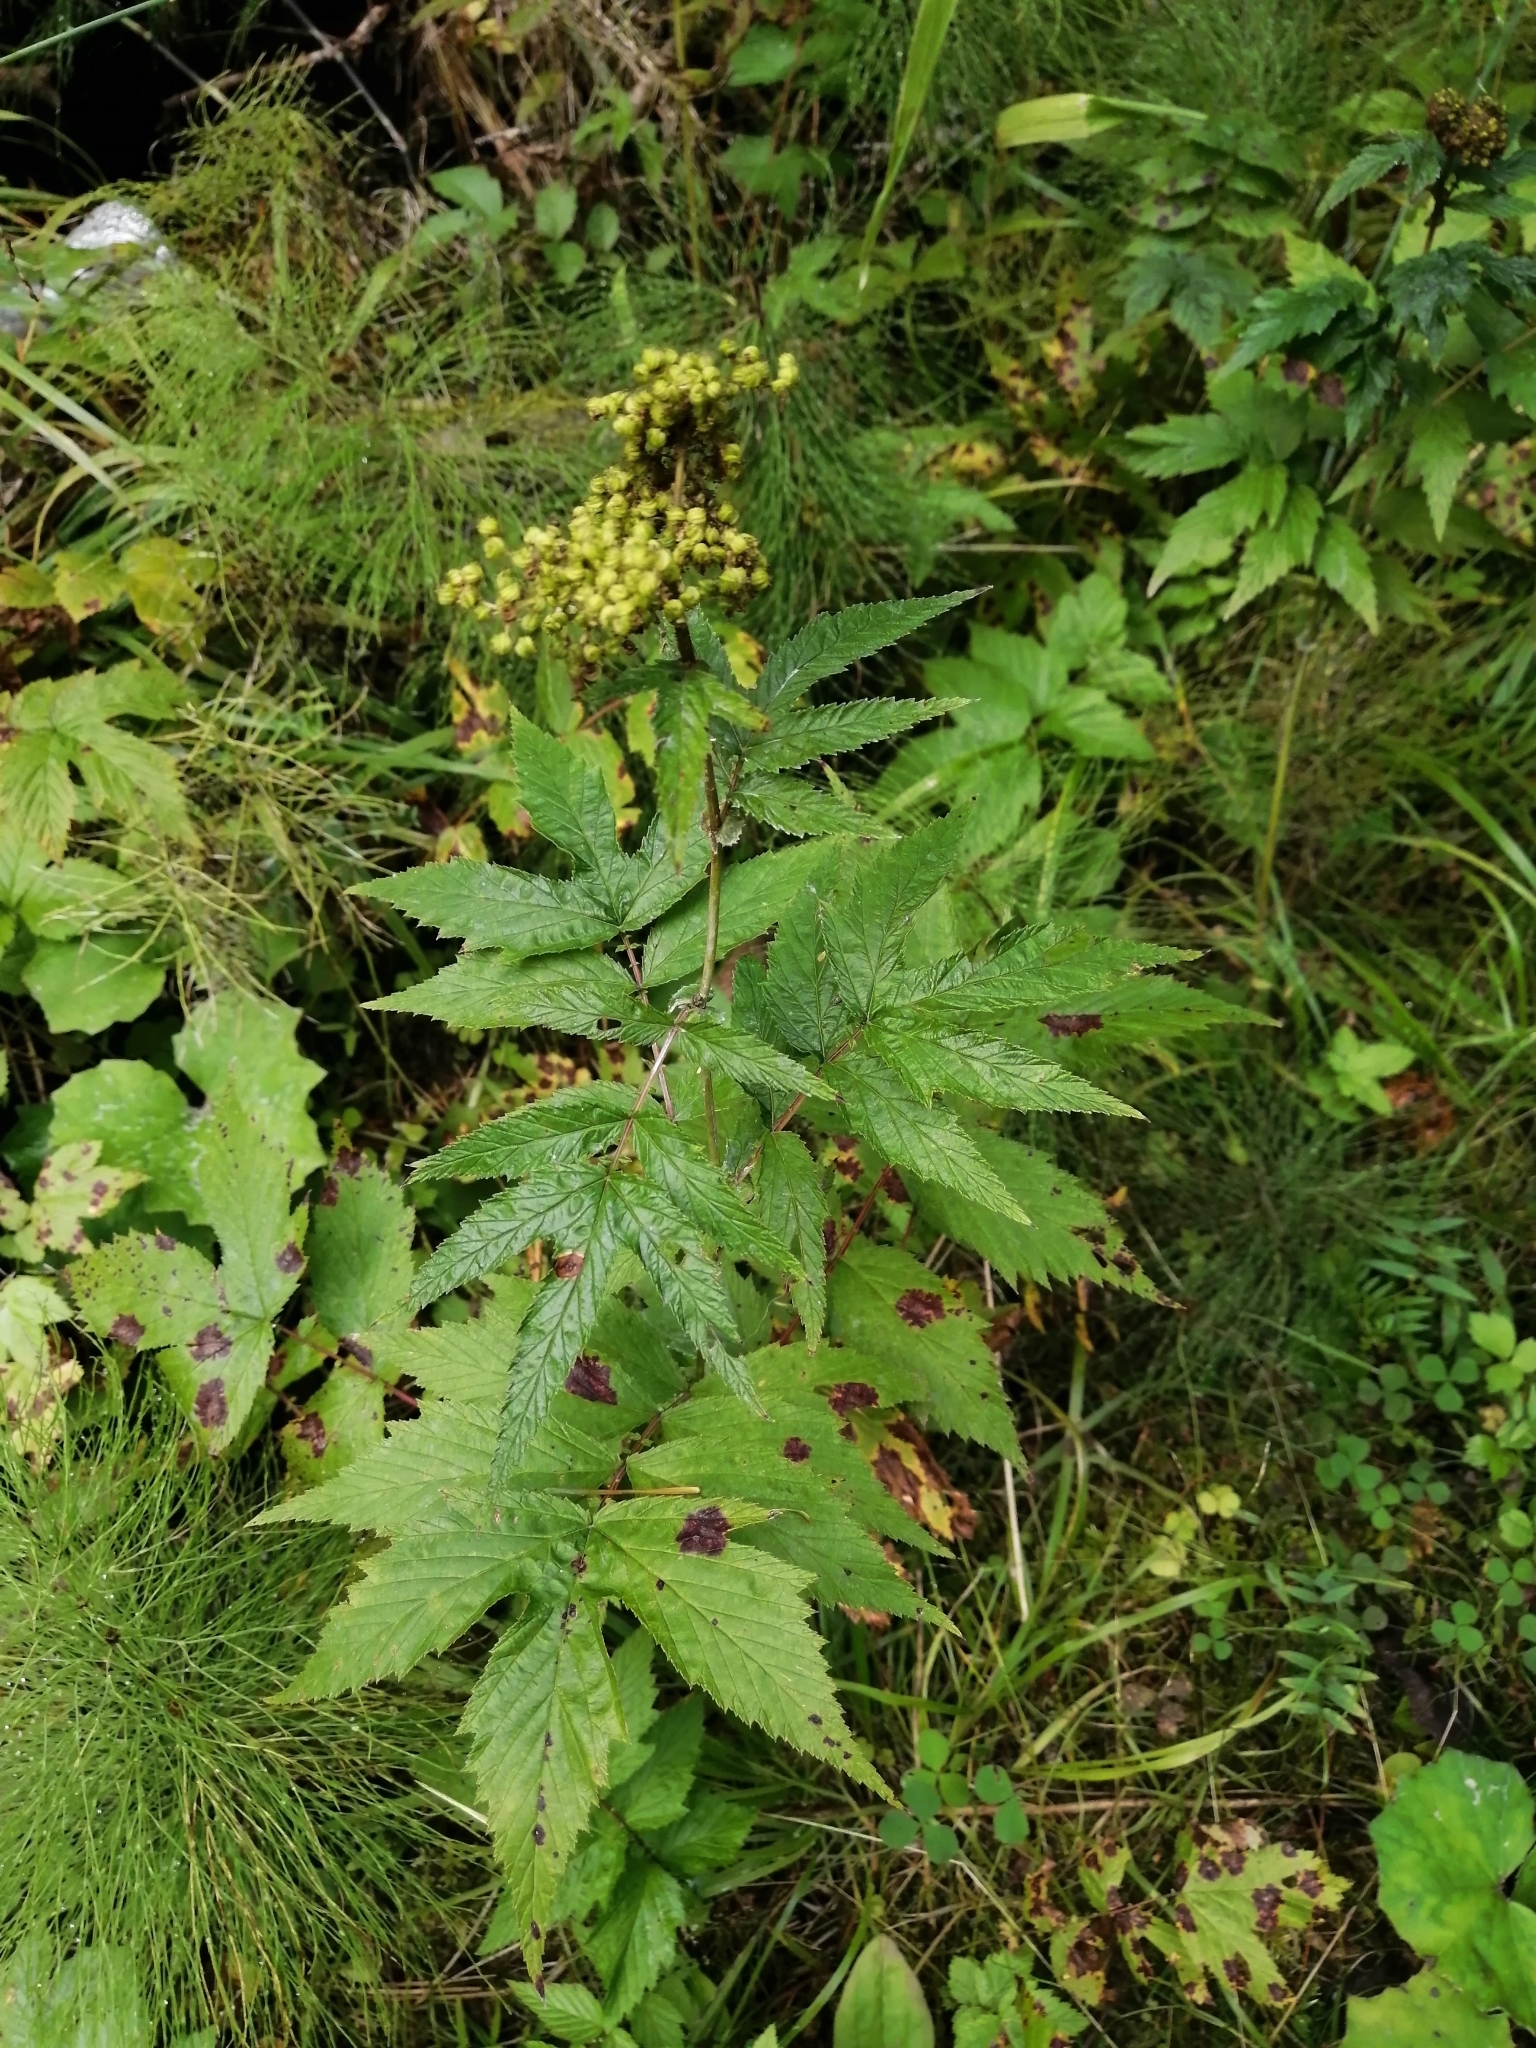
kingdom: Plantae
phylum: Tracheophyta
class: Magnoliopsida
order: Rosales
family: Rosaceae
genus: Filipendula
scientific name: Filipendula ulmaria
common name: Meadowsweet
